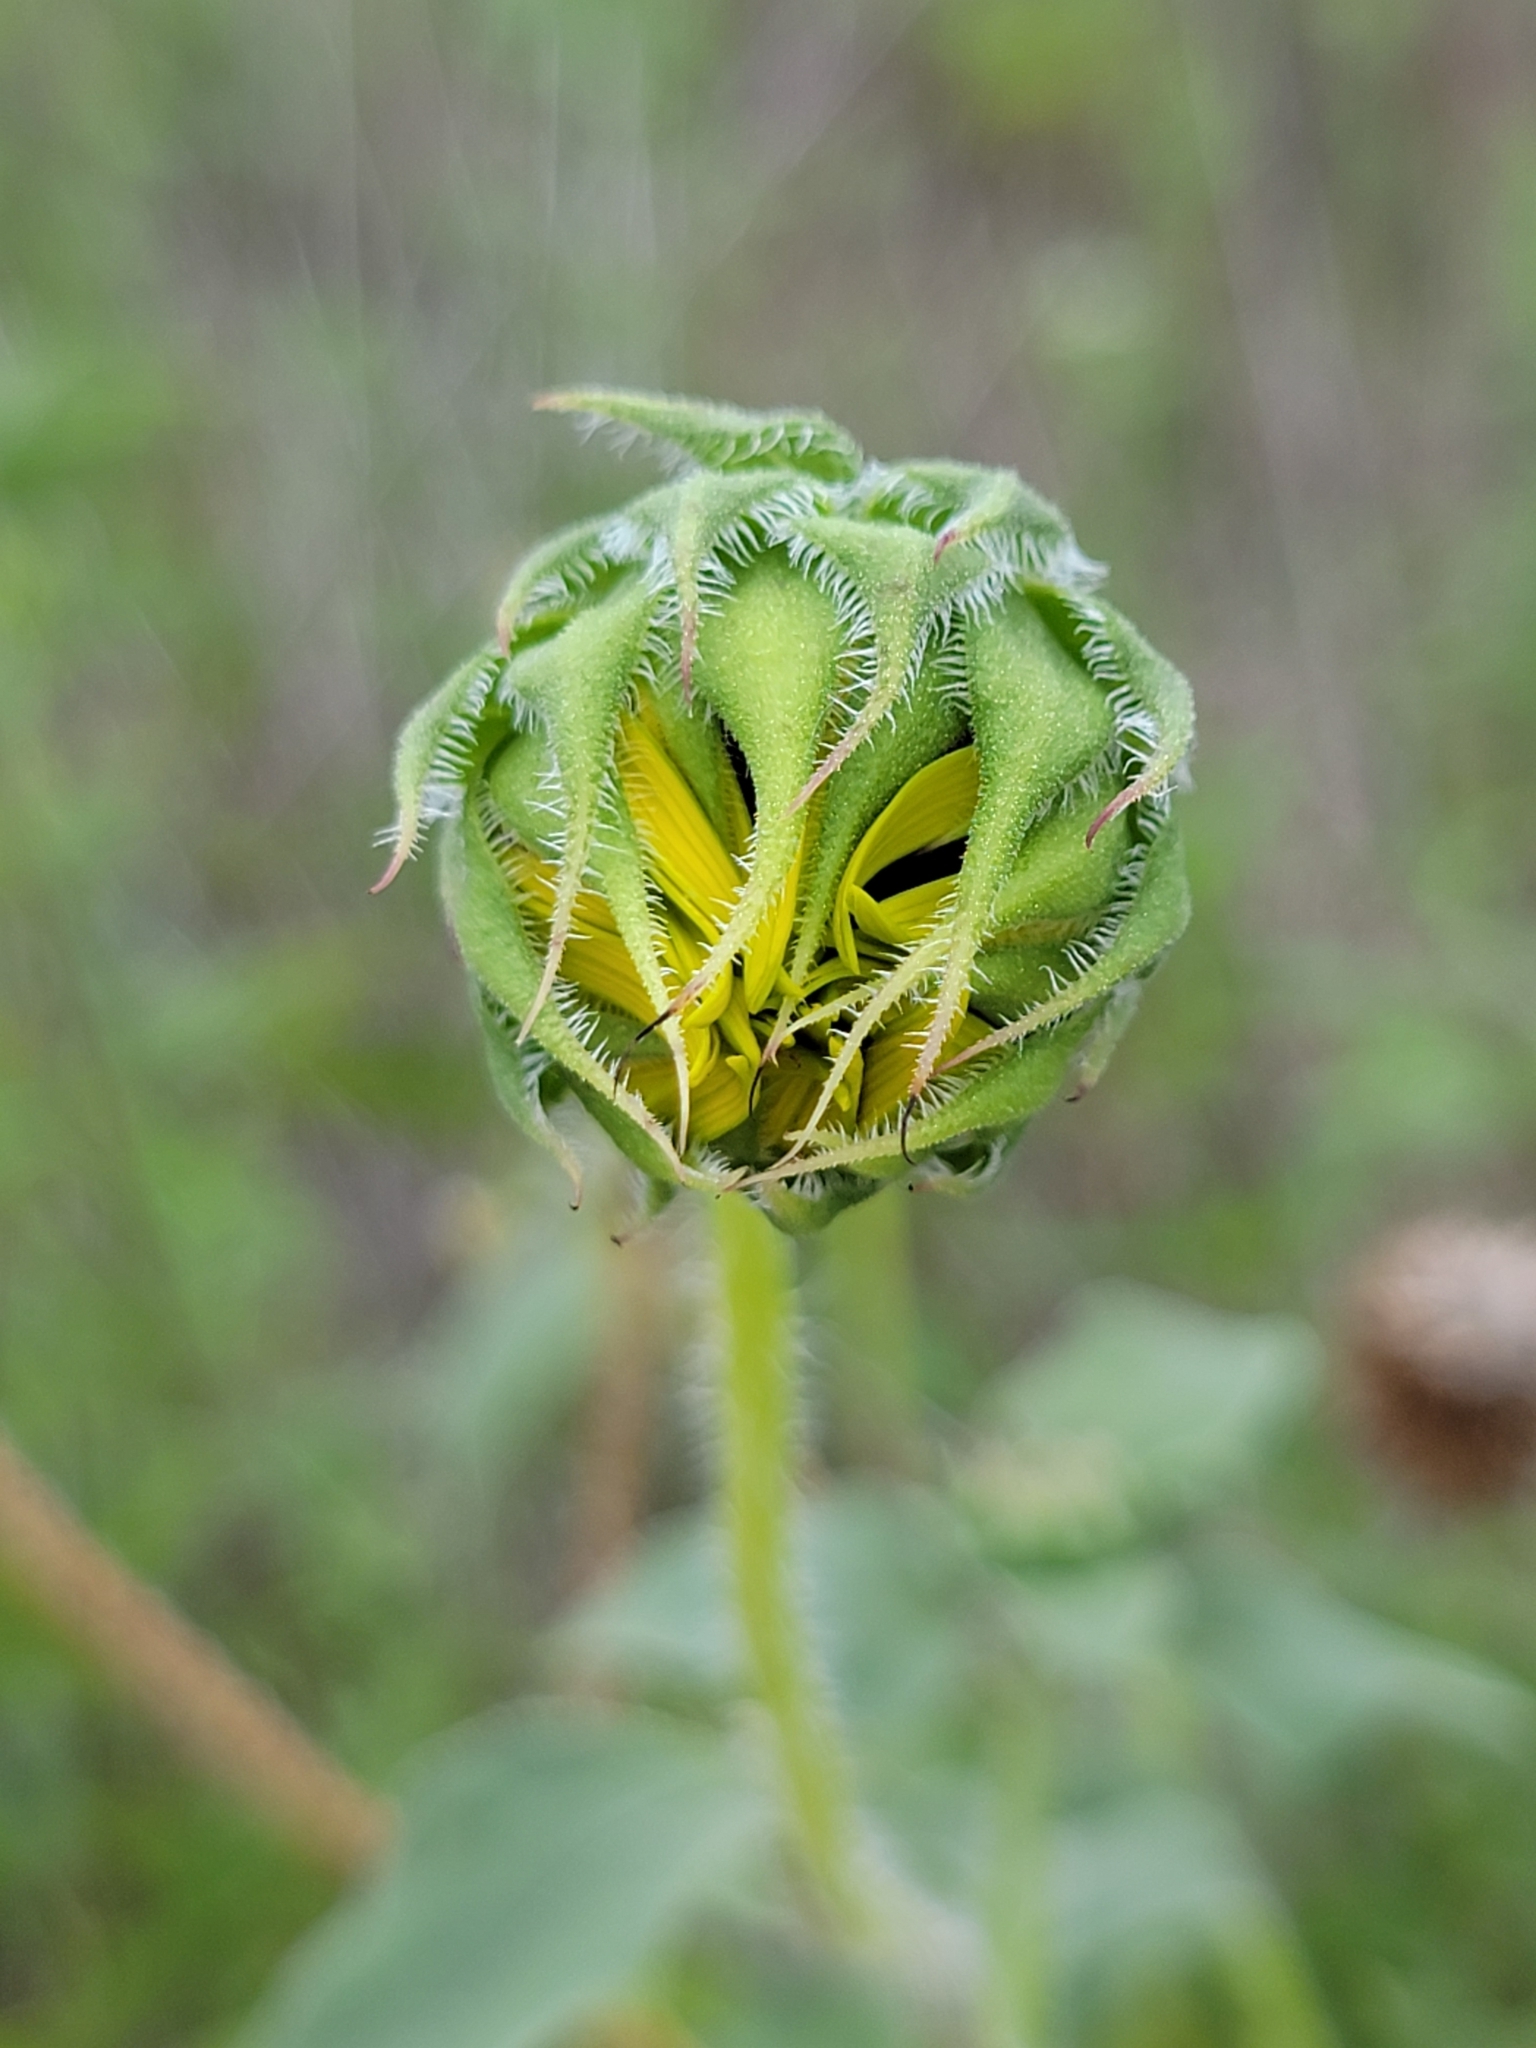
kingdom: Plantae
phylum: Tracheophyta
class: Magnoliopsida
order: Asterales
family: Asteraceae
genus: Helianthus
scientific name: Helianthus annuus
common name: Sunflower
